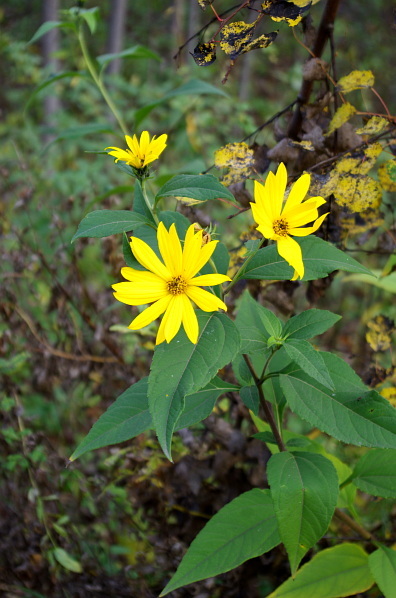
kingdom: Plantae
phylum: Tracheophyta
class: Magnoliopsida
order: Asterales
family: Asteraceae
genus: Helianthus
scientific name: Helianthus tuberosus
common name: Jerusalem artichoke
